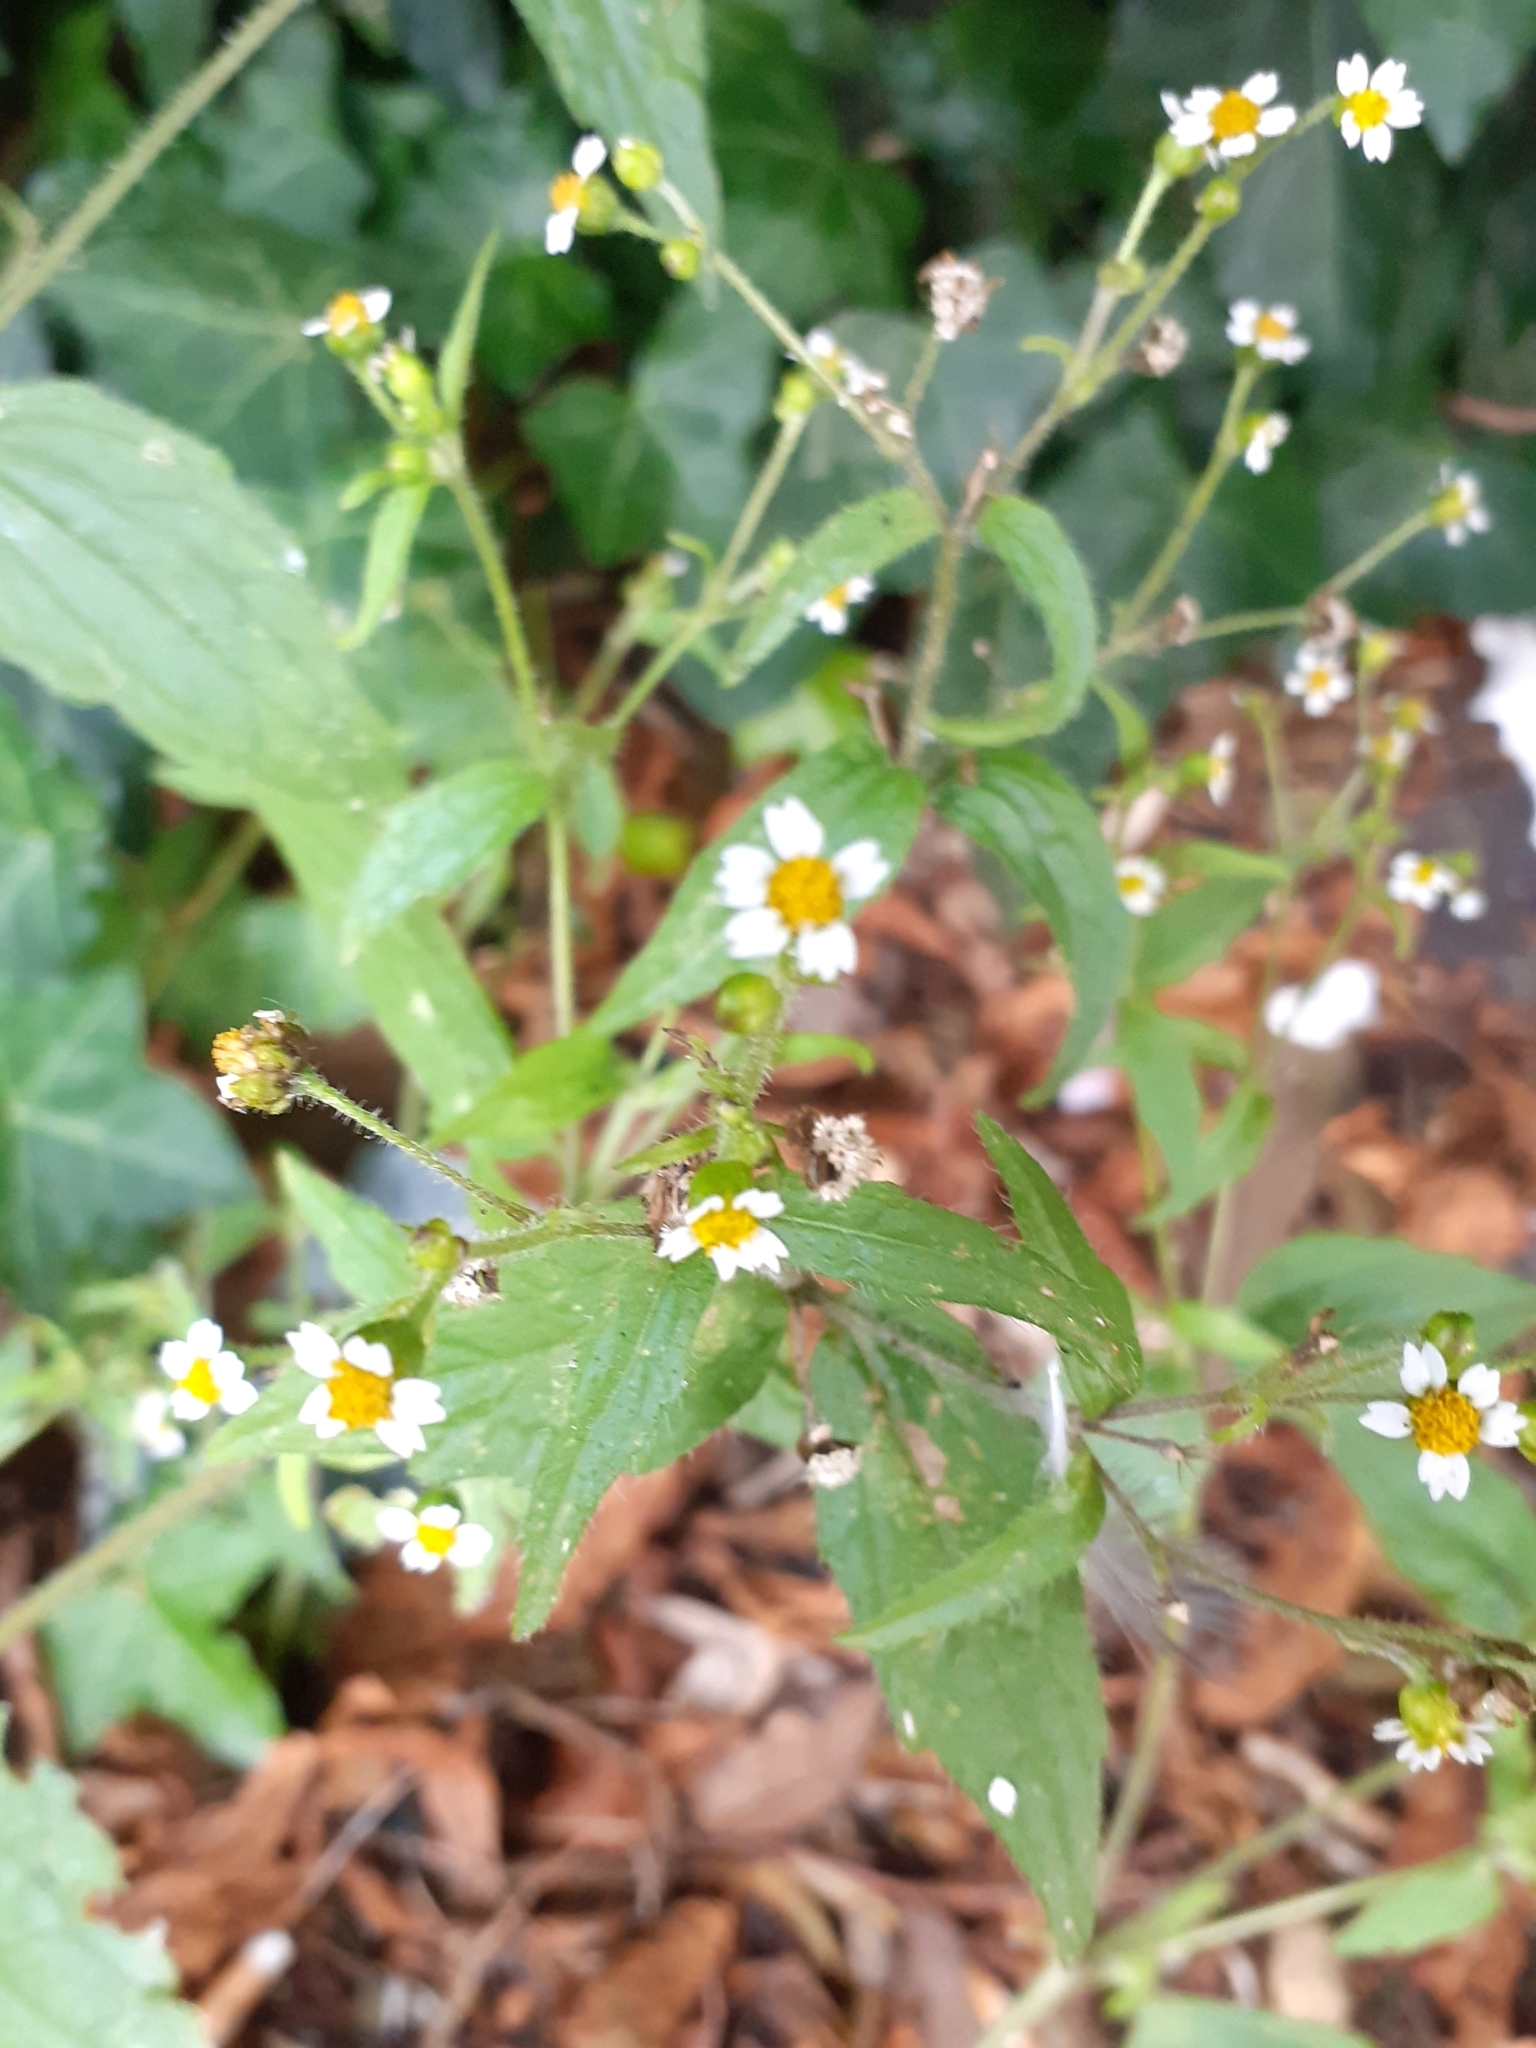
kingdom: Plantae
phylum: Tracheophyta
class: Magnoliopsida
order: Asterales
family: Asteraceae
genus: Galinsoga
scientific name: Galinsoga quadriradiata
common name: Shaggy soldier
